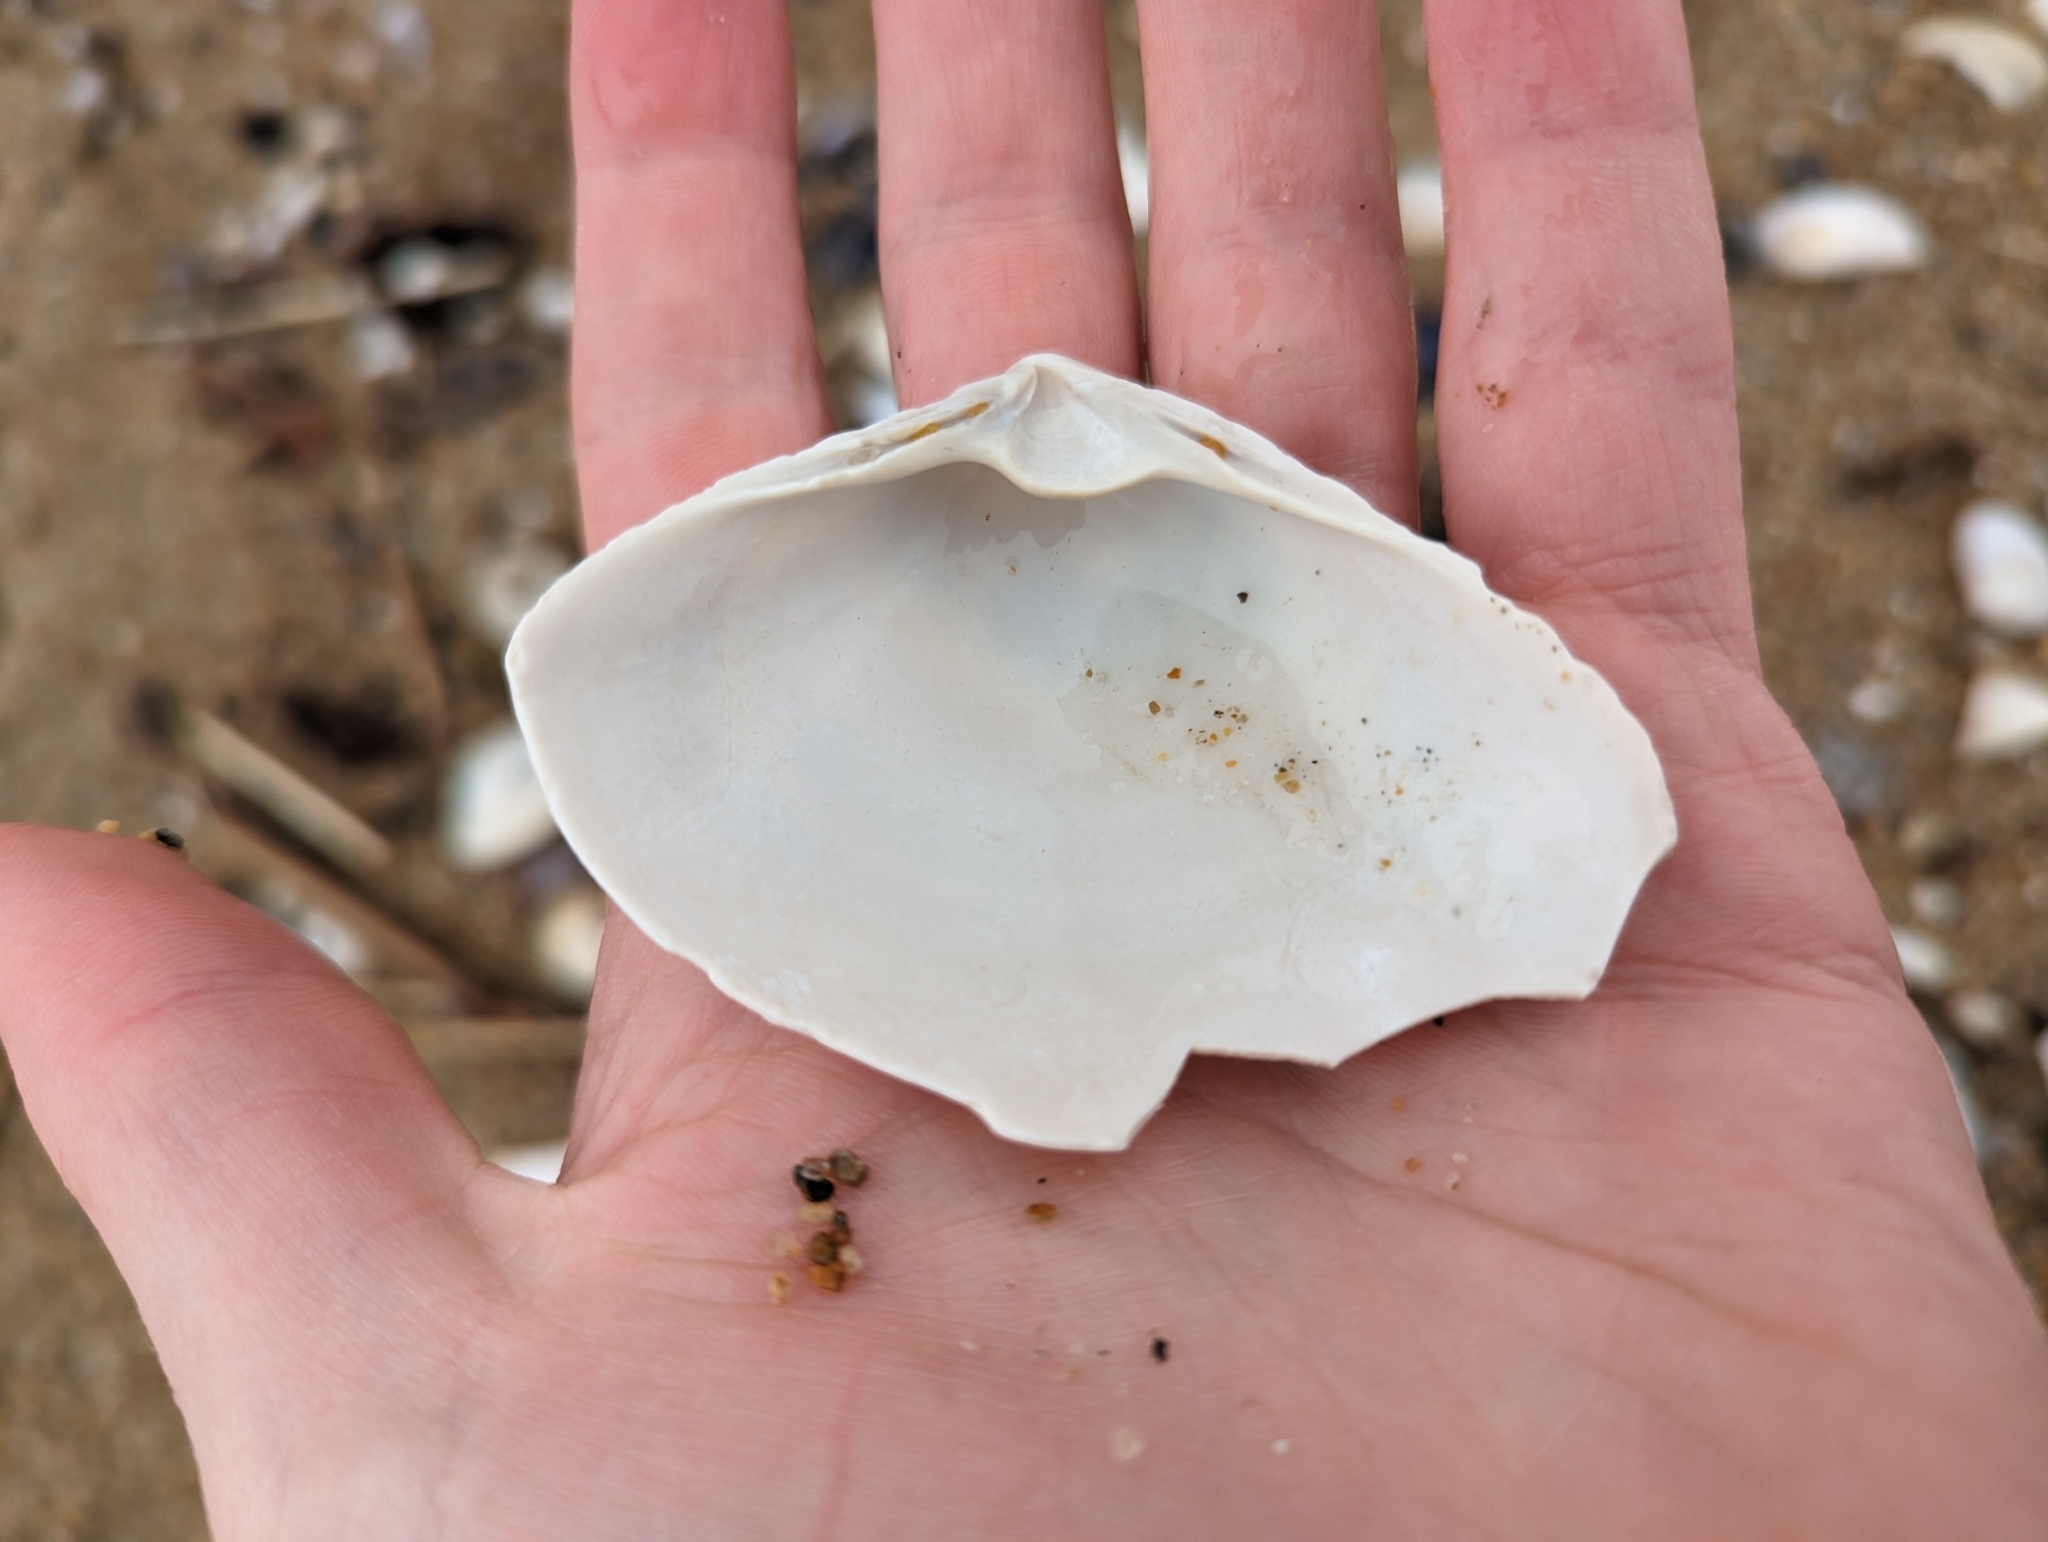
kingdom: Animalia
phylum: Mollusca
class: Bivalvia
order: Venerida
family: Mactridae
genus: Spisula
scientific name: Spisula solidissima
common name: Atlantic surf clam
